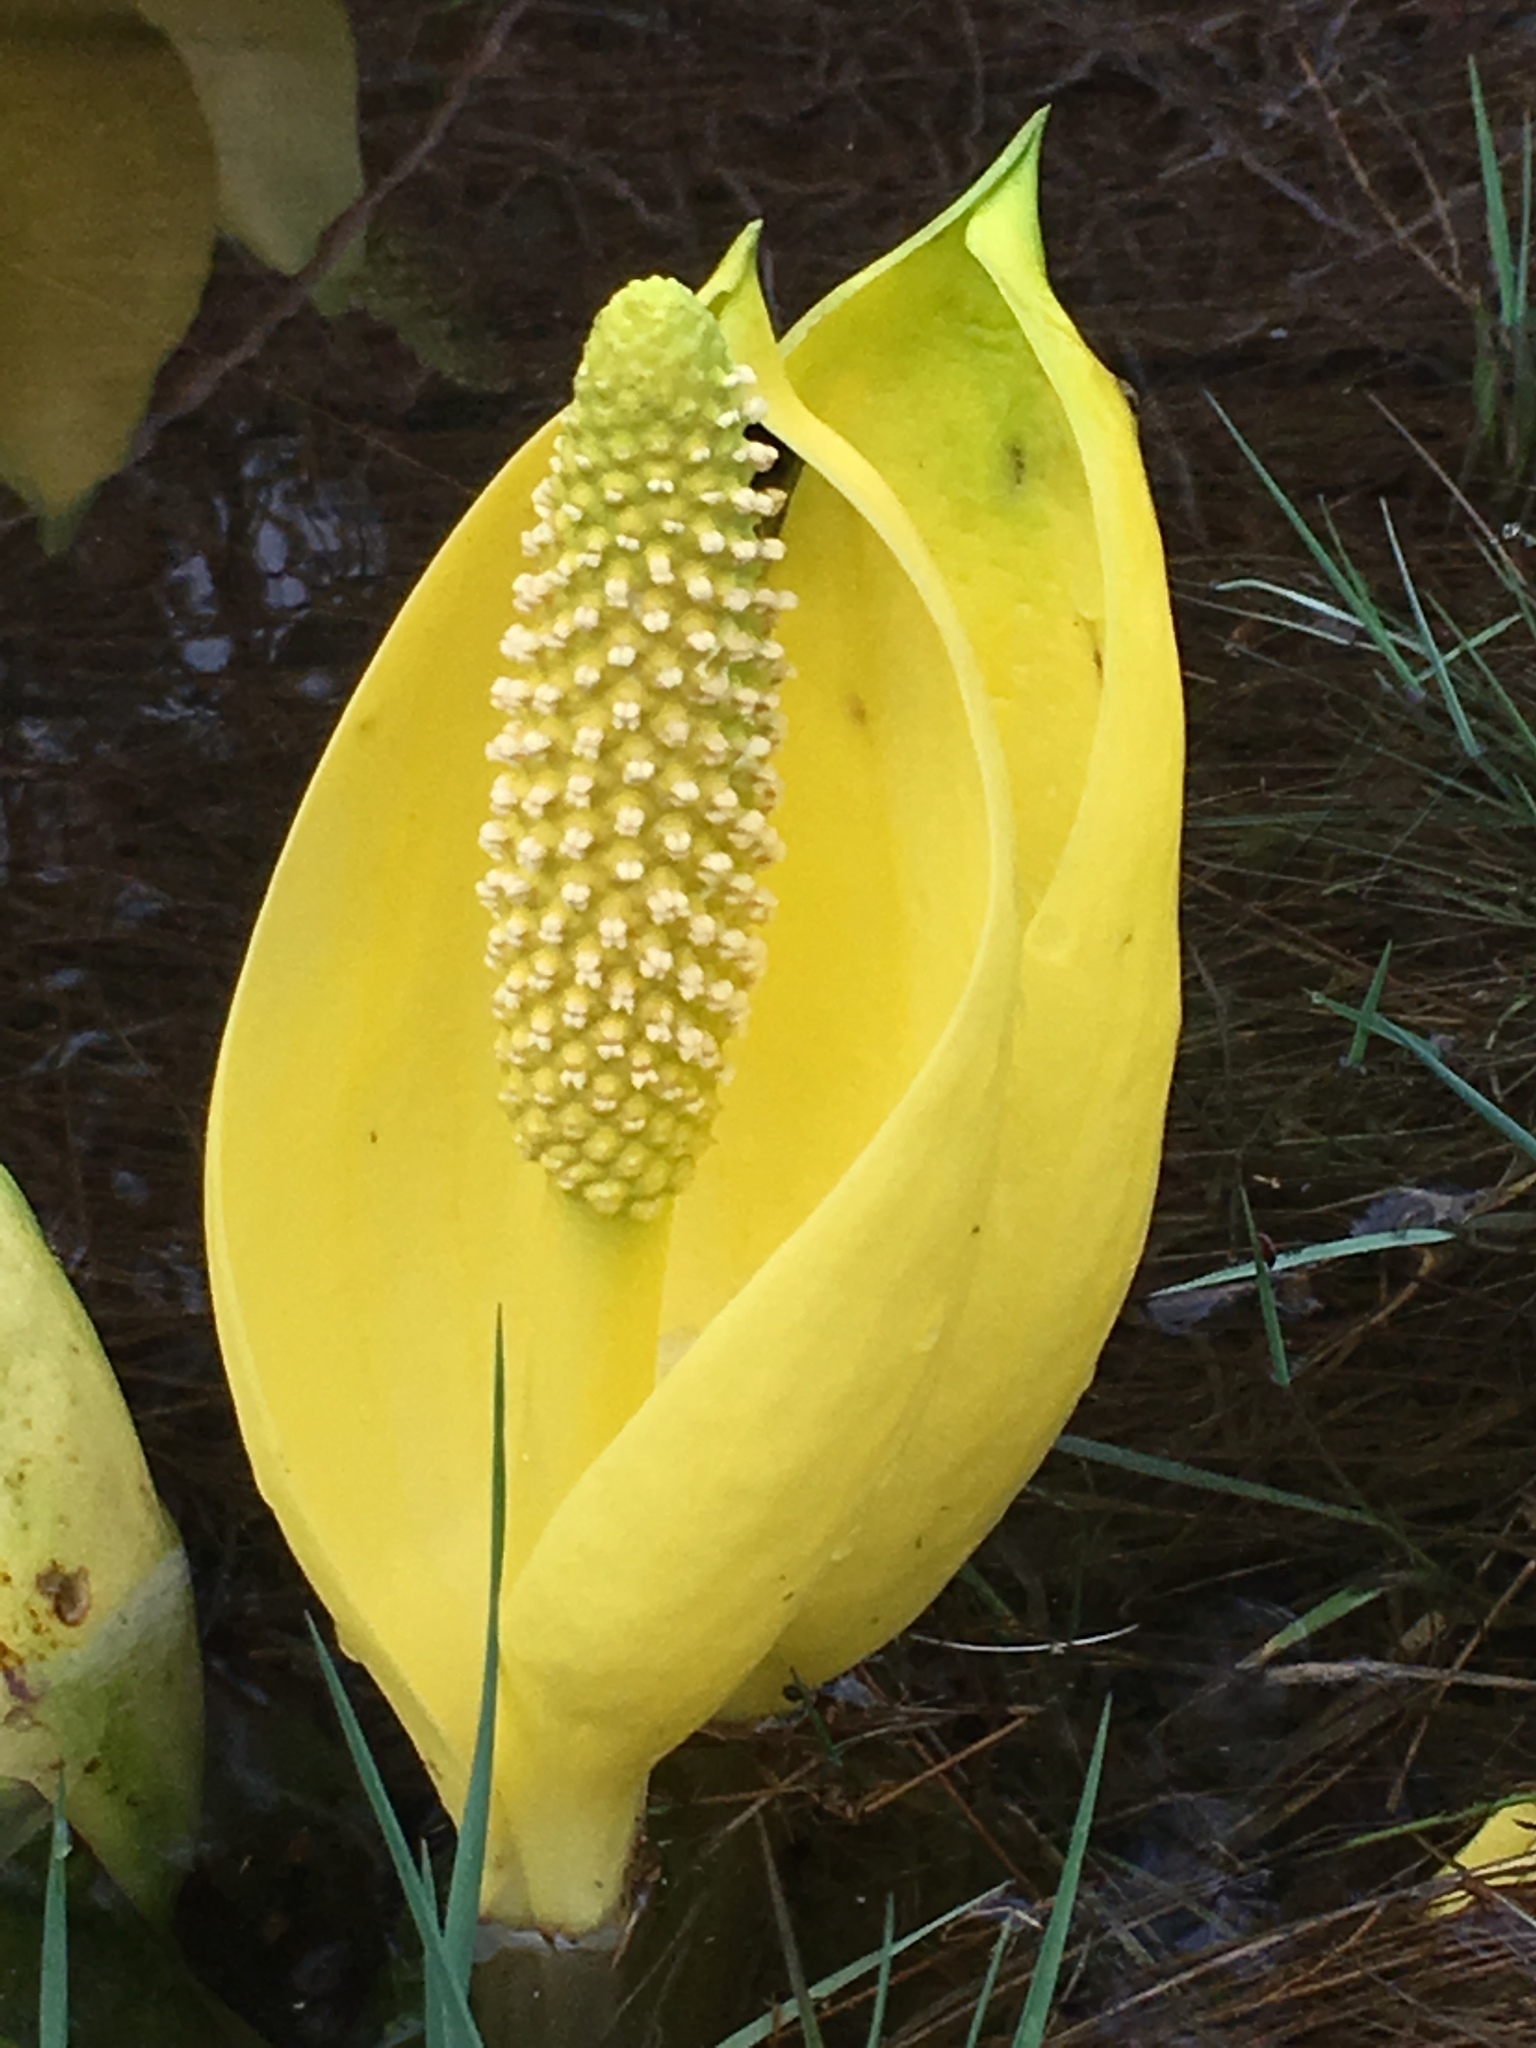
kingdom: Plantae
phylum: Tracheophyta
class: Liliopsida
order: Alismatales
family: Araceae
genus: Lysichiton
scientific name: Lysichiton americanus
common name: American skunk cabbage
